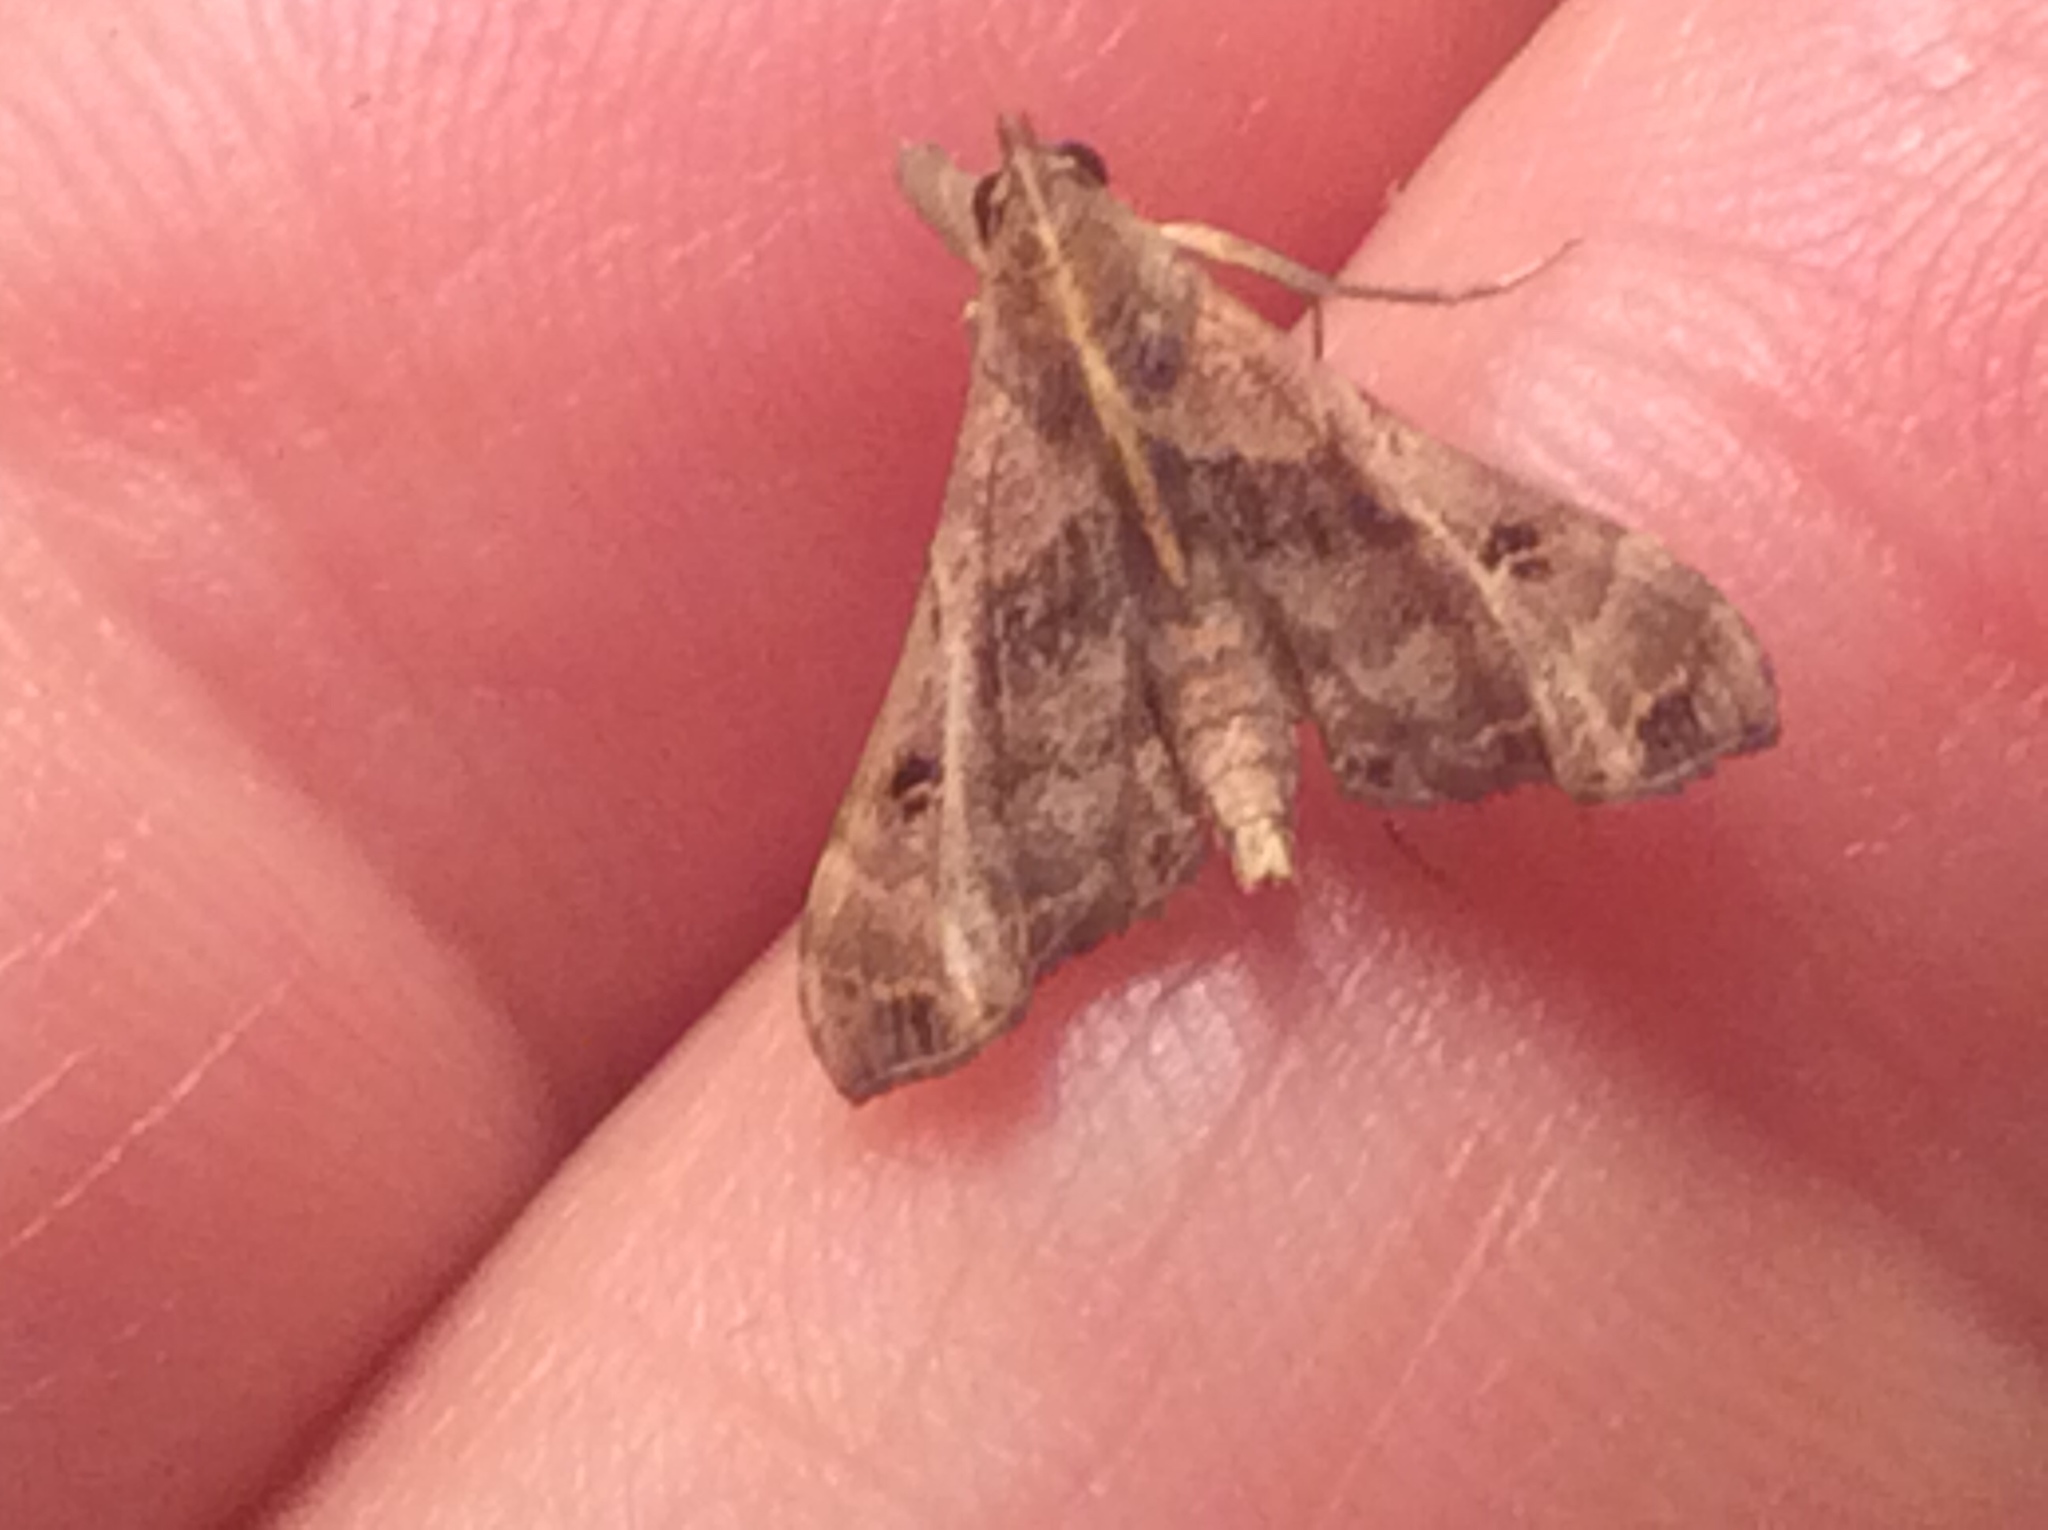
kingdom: Animalia
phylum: Arthropoda
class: Insecta
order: Lepidoptera
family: Erebidae
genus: Palthis
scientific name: Palthis asopialis
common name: Faint-spotted palthis moth
